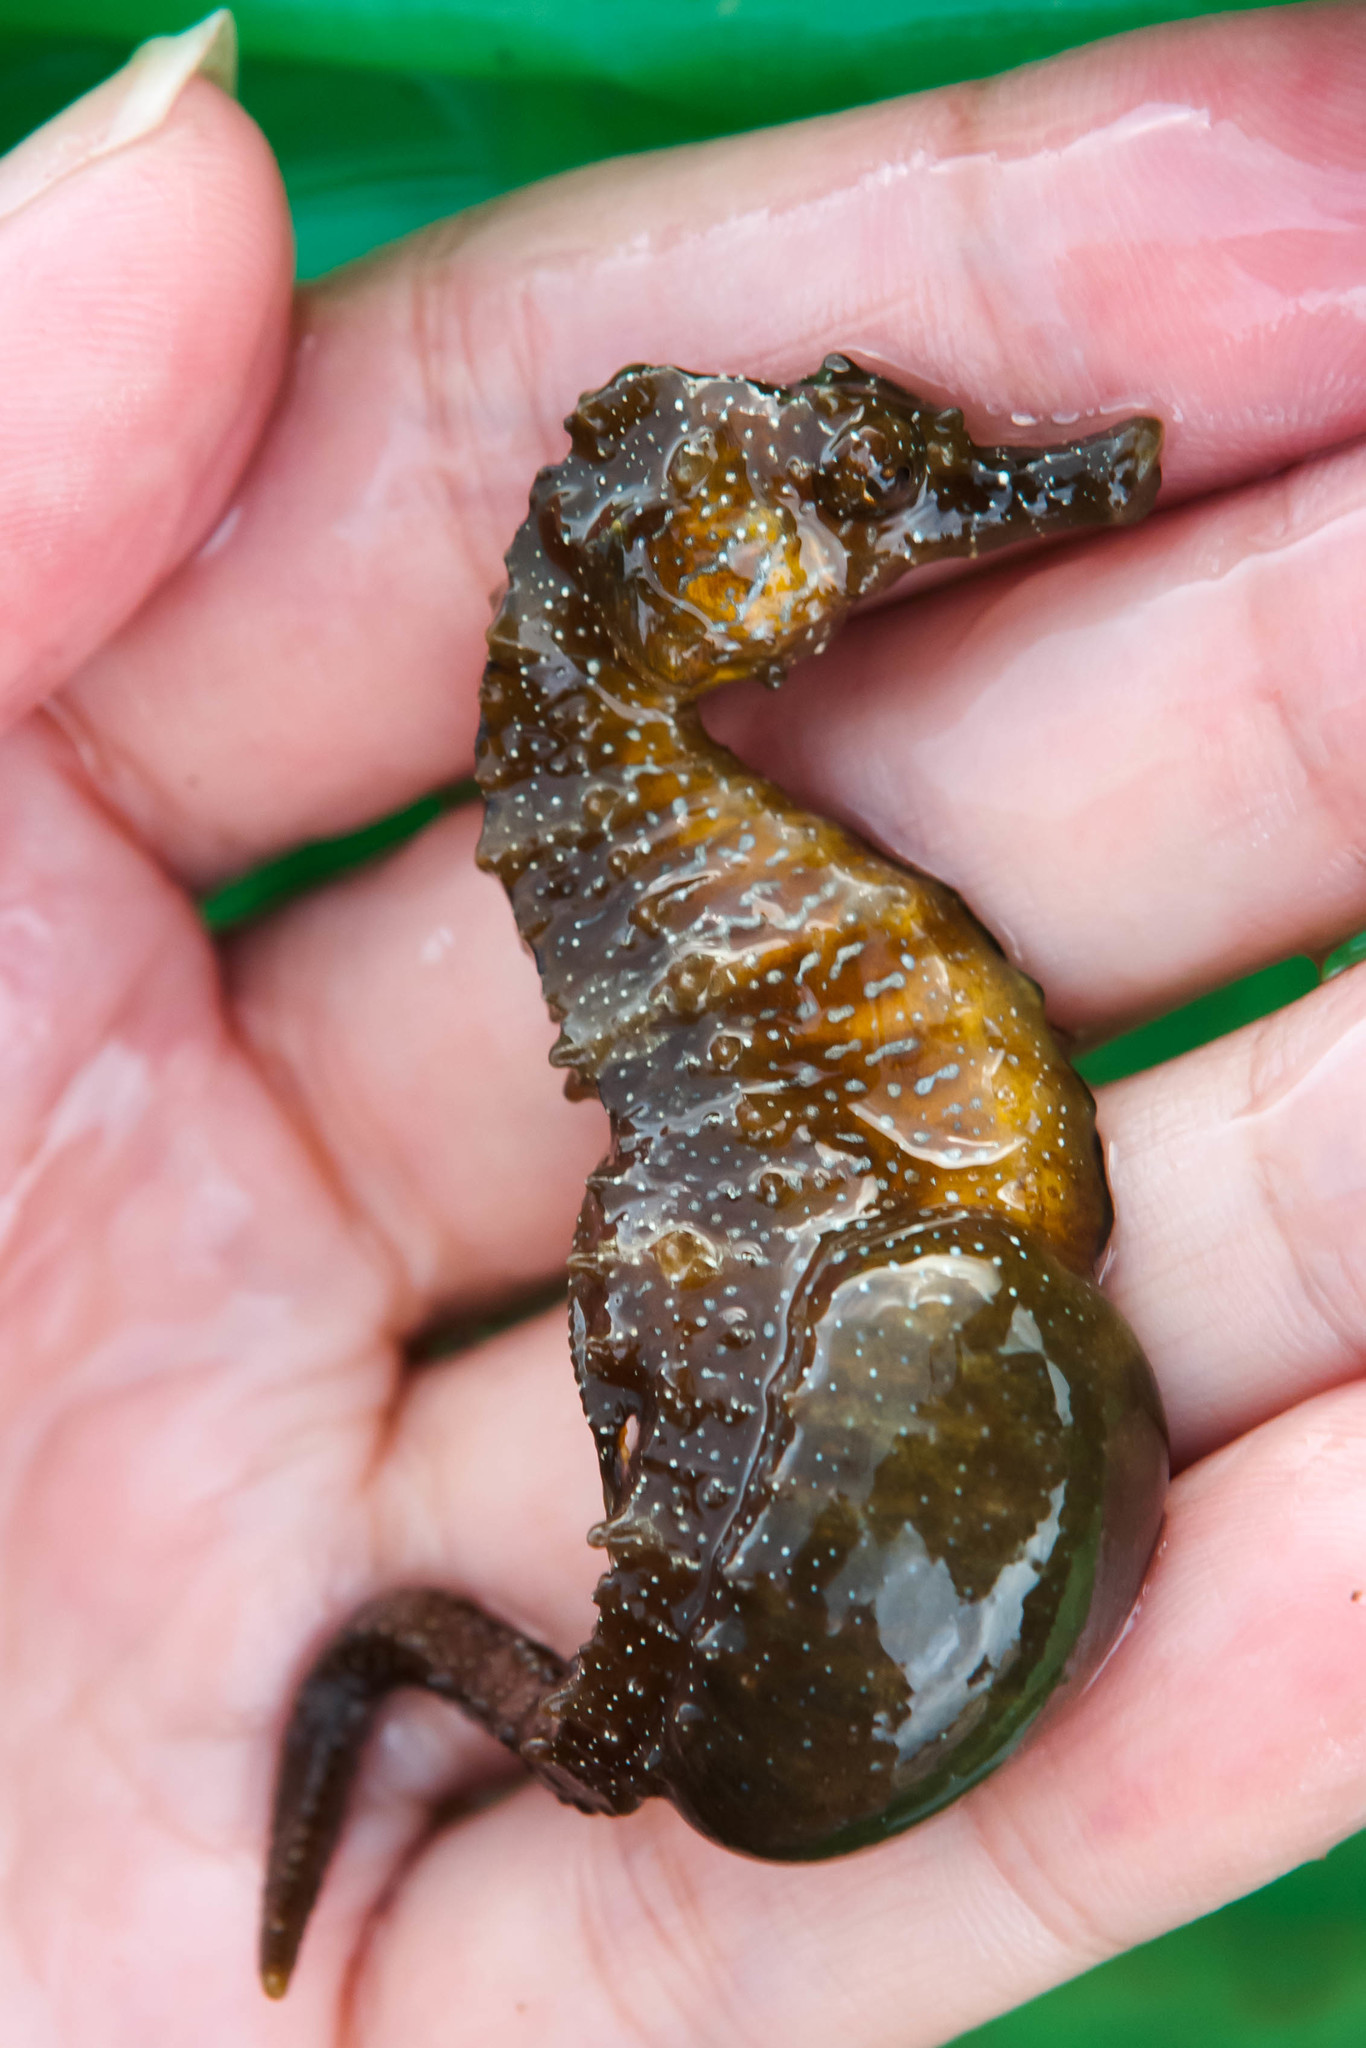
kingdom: Animalia
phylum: Chordata
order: Syngnathiformes
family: Syngnathidae
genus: Hippocampus
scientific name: Hippocampus guttulatus
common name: Long-snouted seahorse
